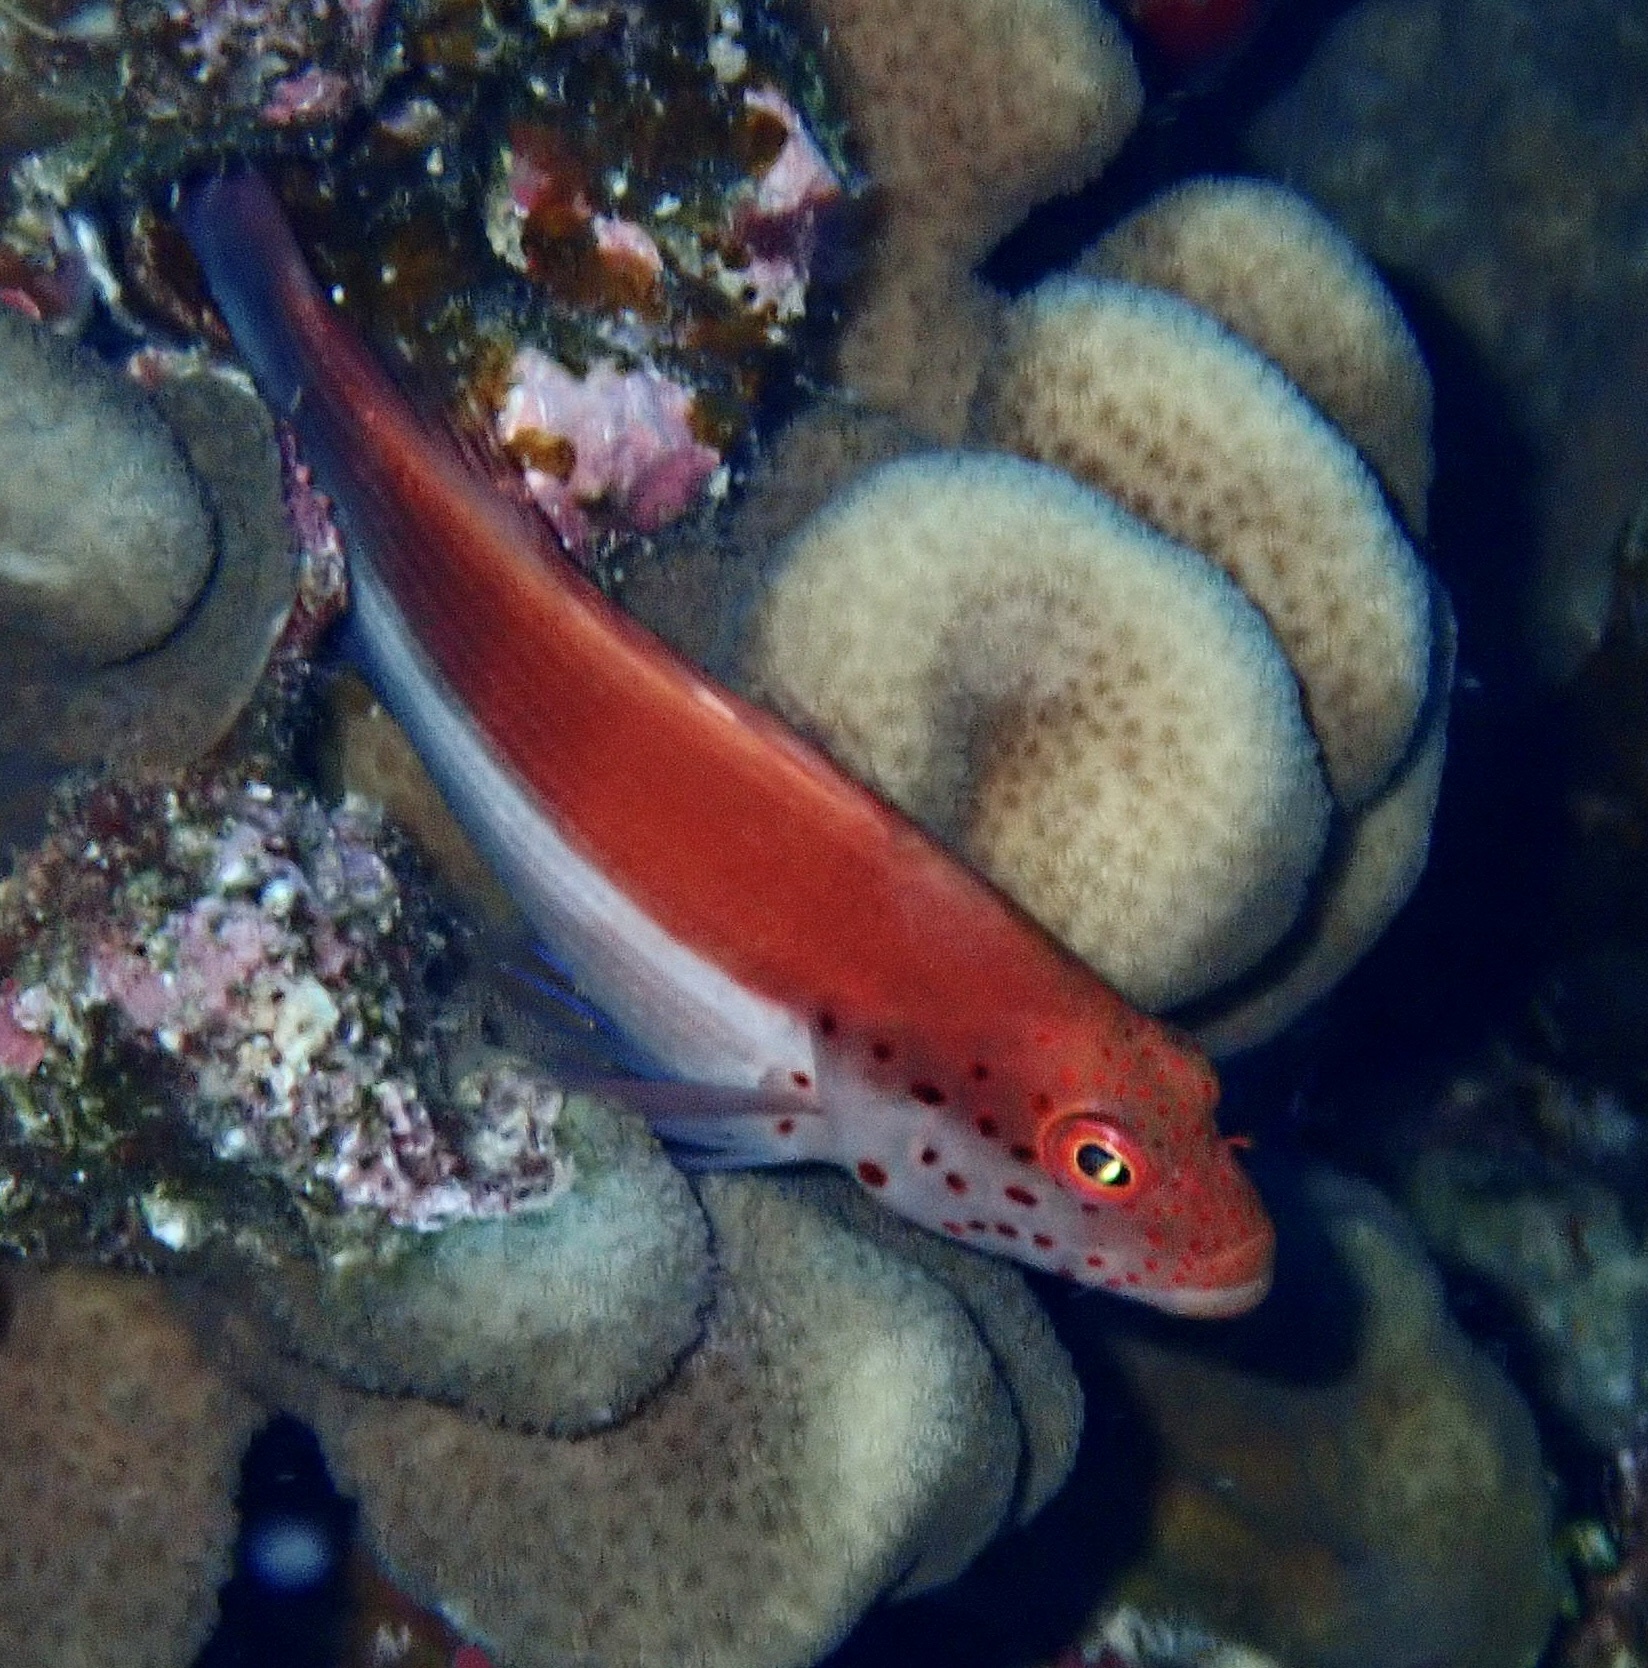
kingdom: Animalia
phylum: Chordata
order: Perciformes
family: Cirrhitidae
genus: Paracirrhites
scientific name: Paracirrhites forsteri
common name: Freckled hawkfish
